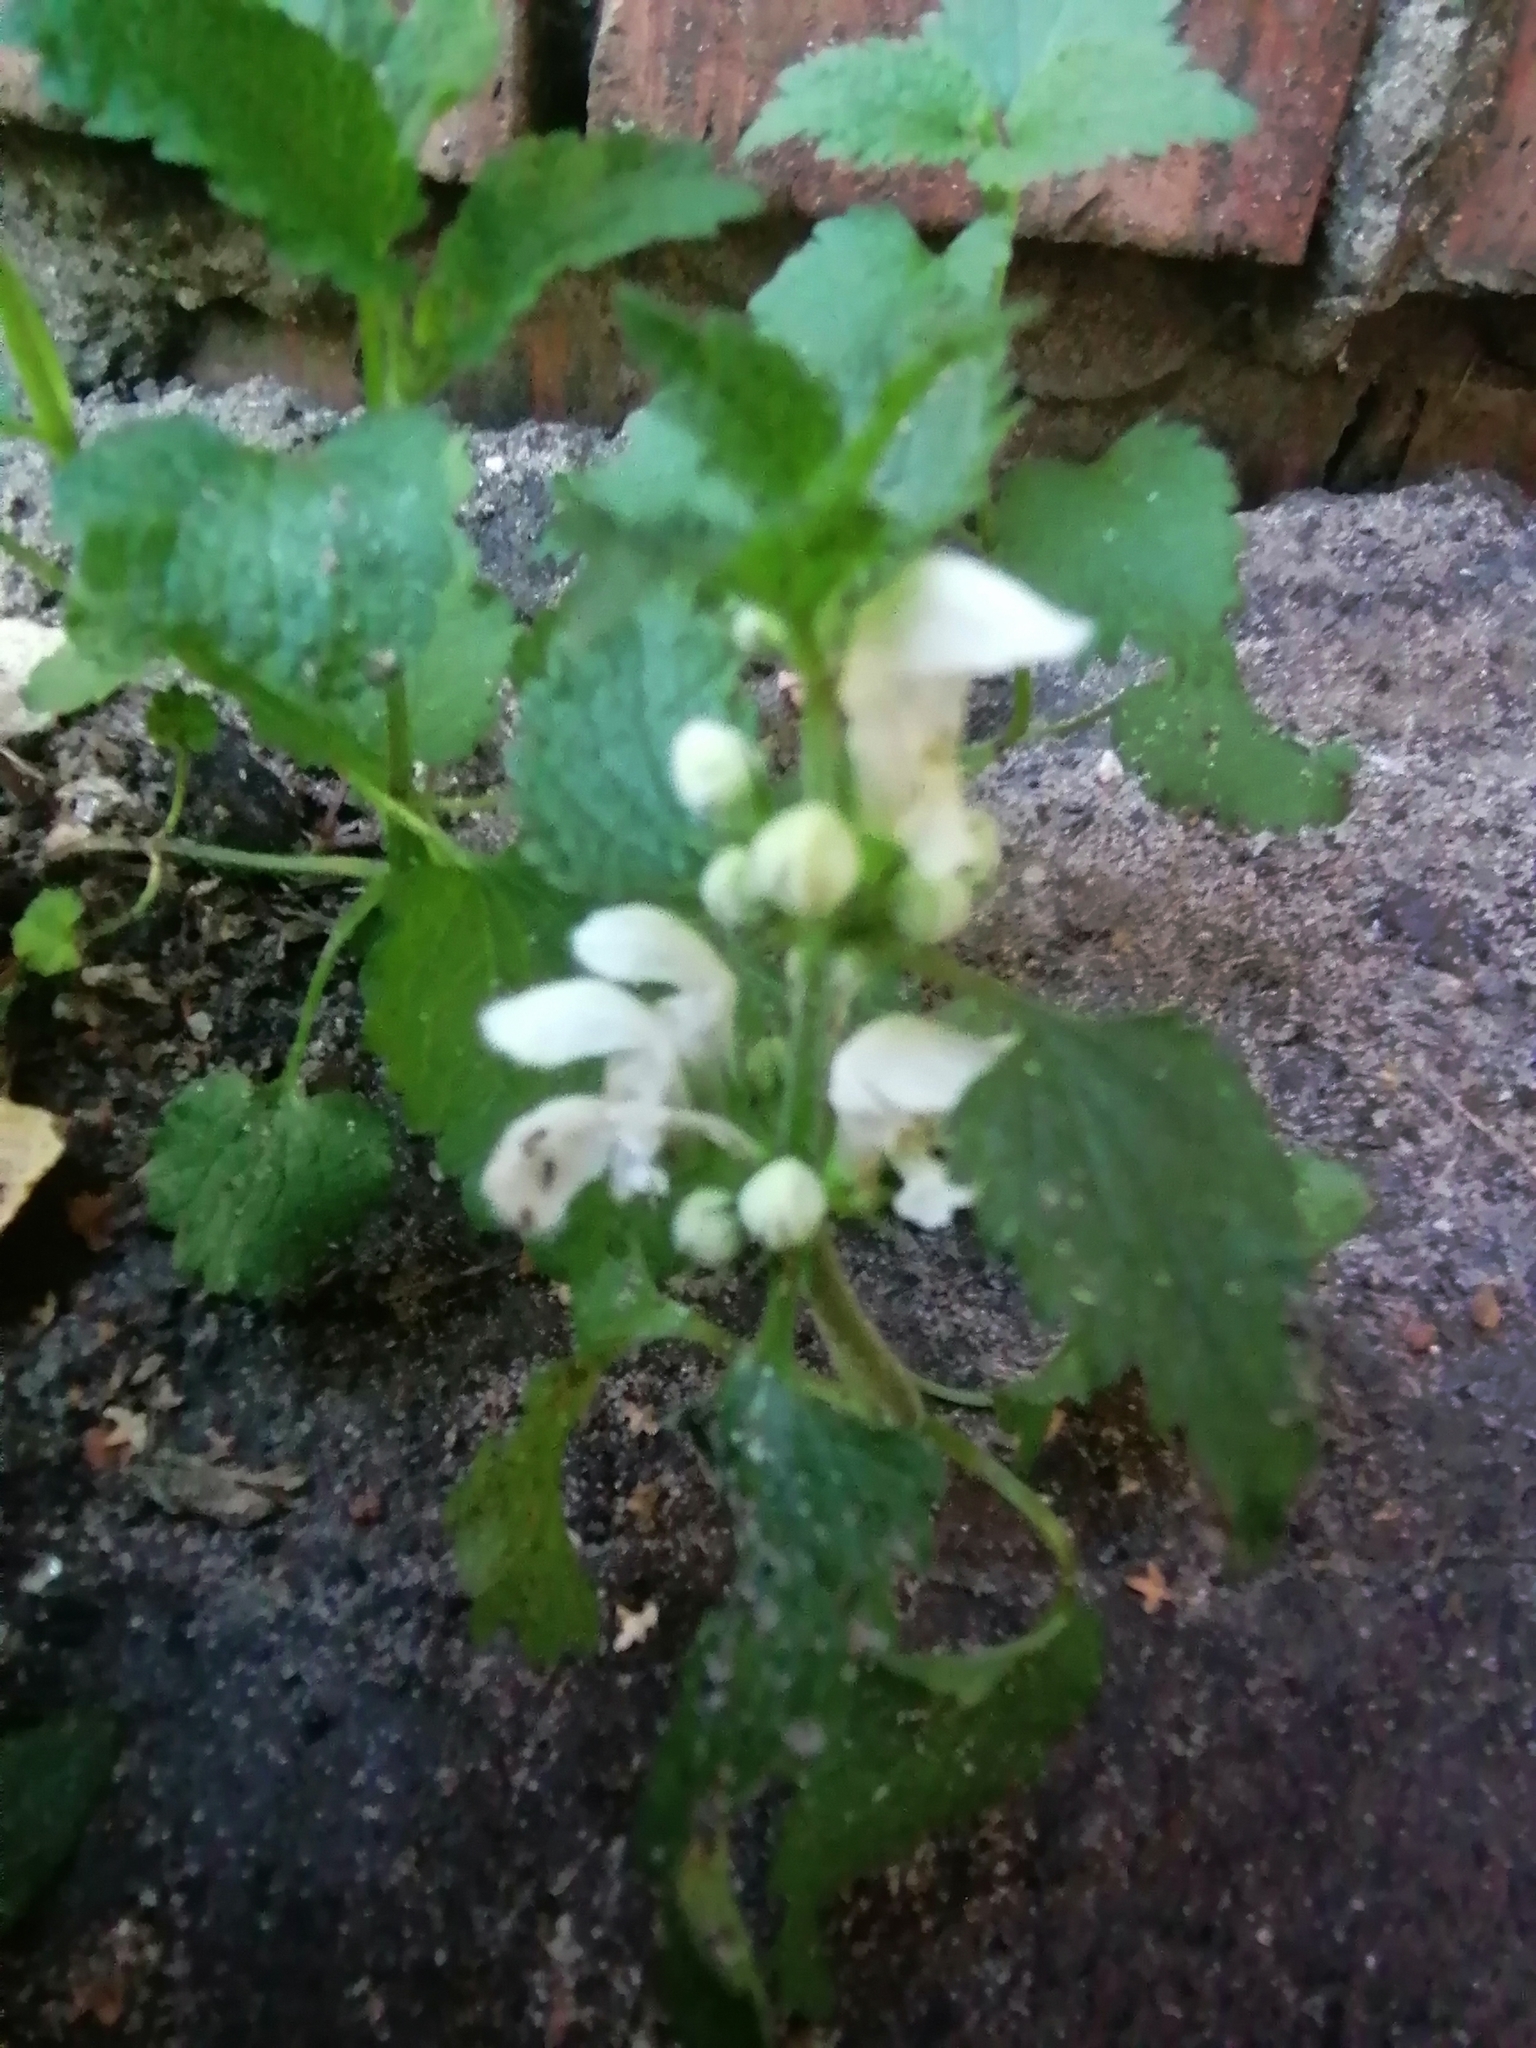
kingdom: Plantae
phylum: Tracheophyta
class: Magnoliopsida
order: Lamiales
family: Lamiaceae
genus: Lamium
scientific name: Lamium album
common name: White dead-nettle
